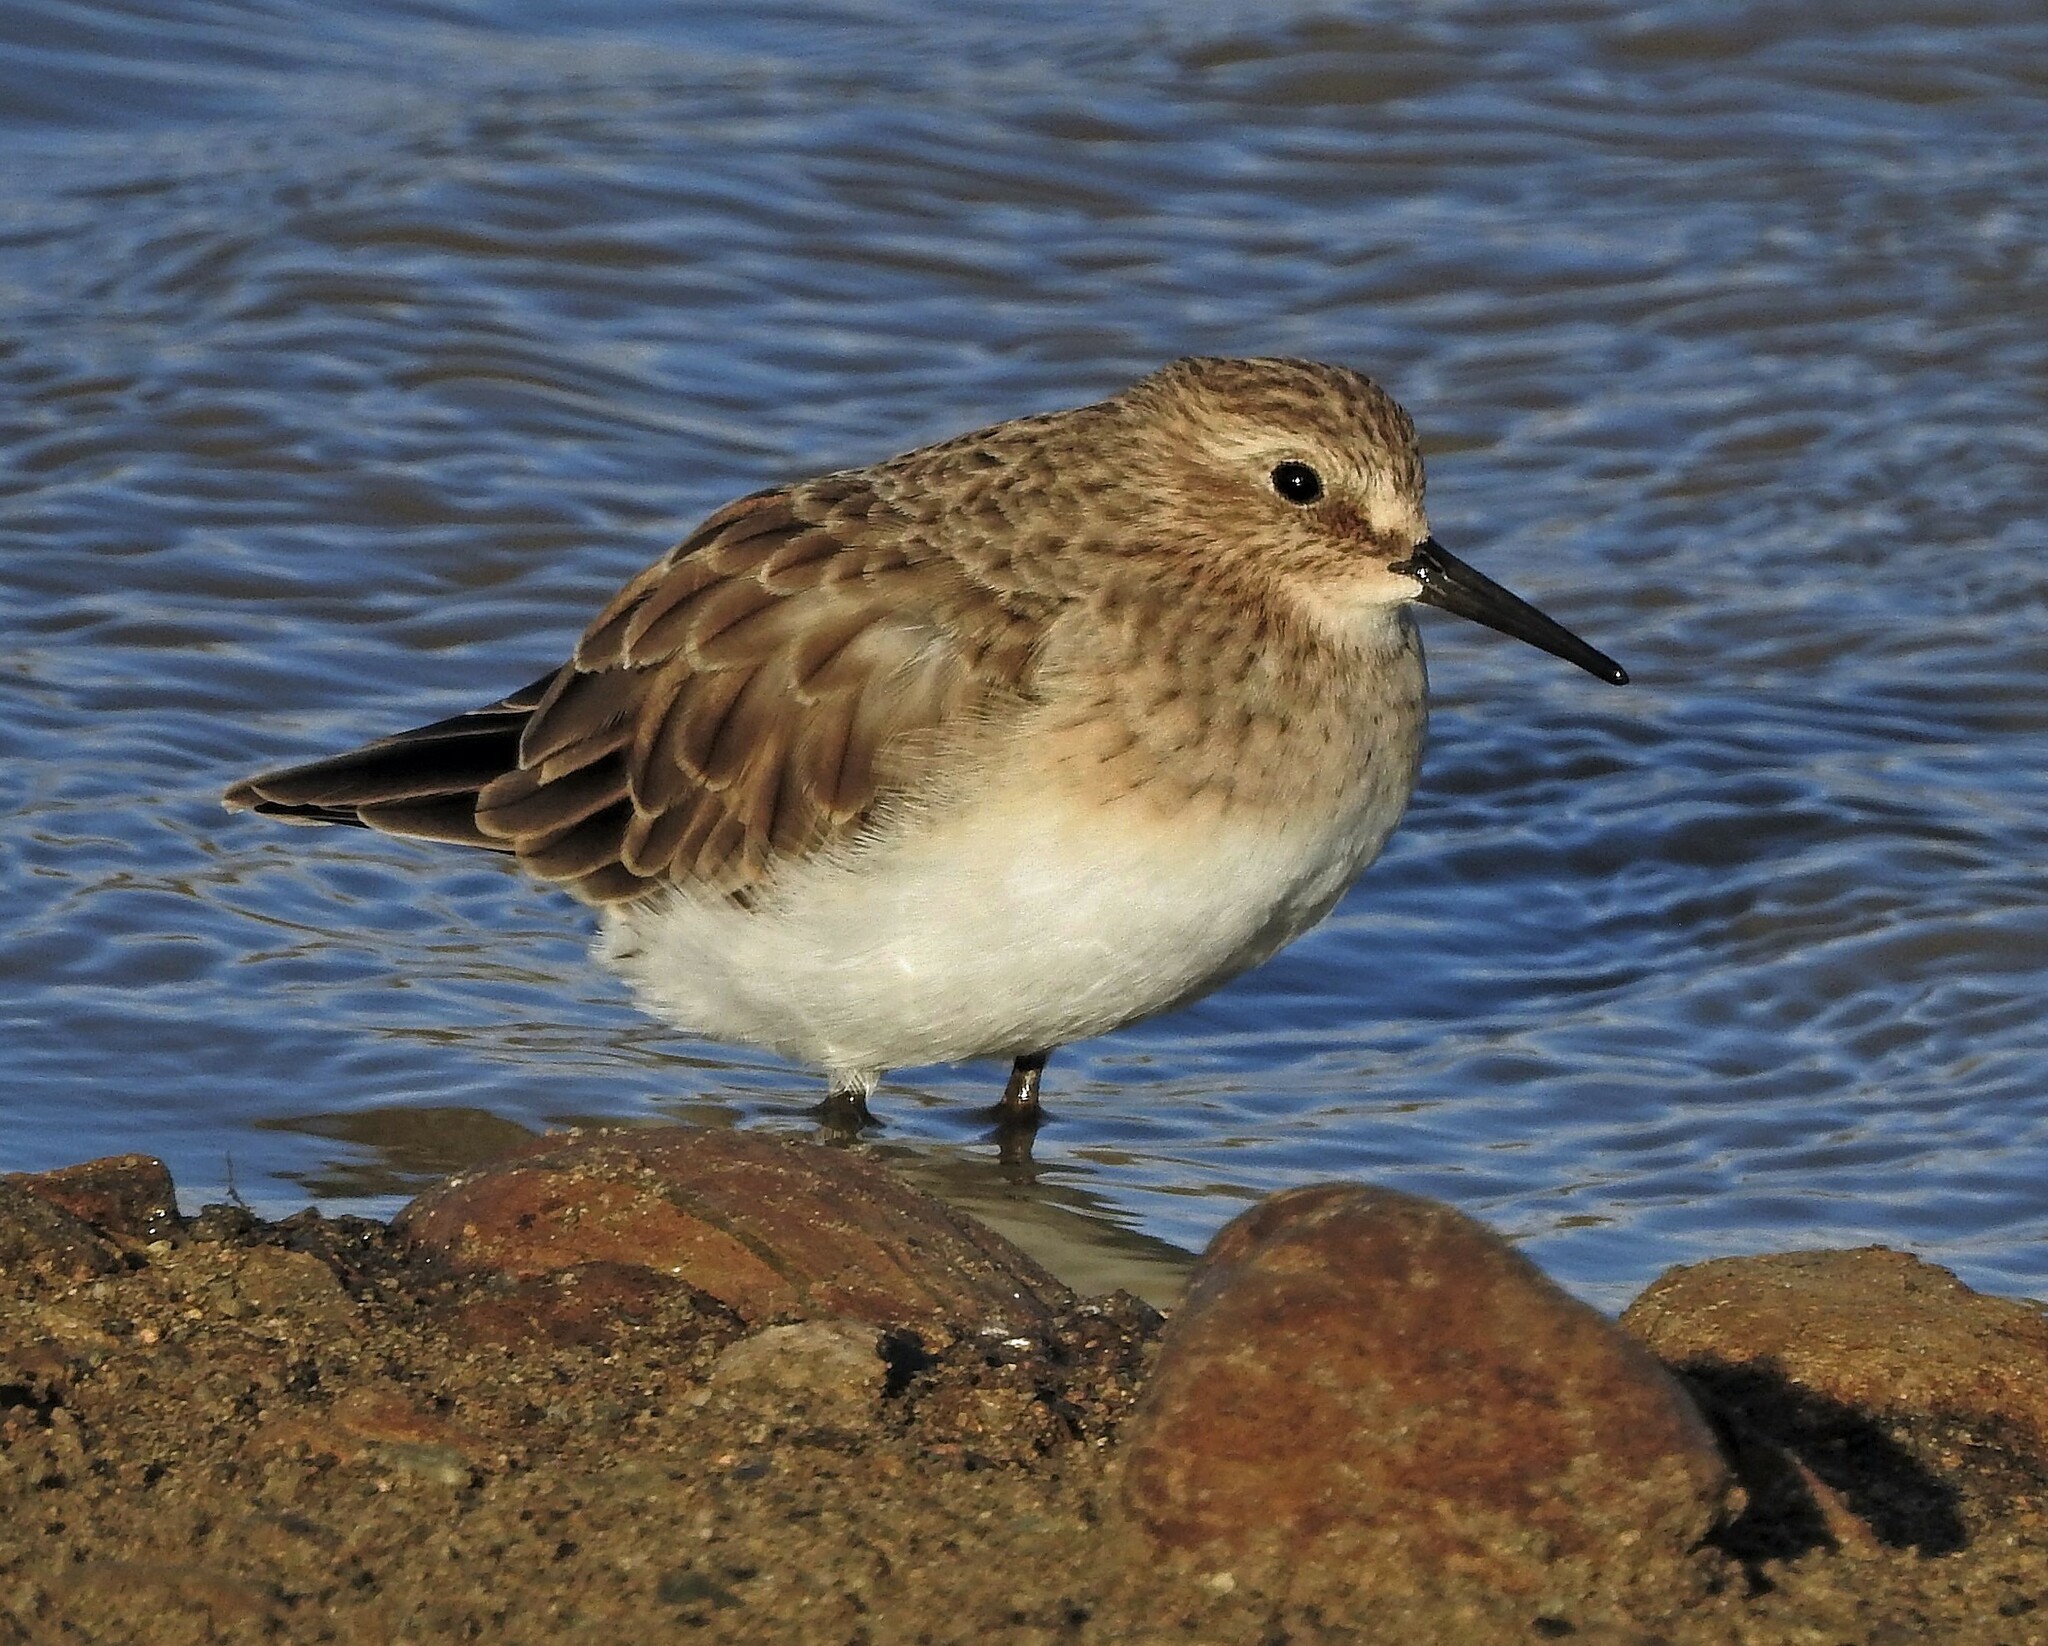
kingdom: Animalia
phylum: Chordata
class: Aves
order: Charadriiformes
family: Scolopacidae
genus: Calidris
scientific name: Calidris bairdii
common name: Baird's sandpiper
